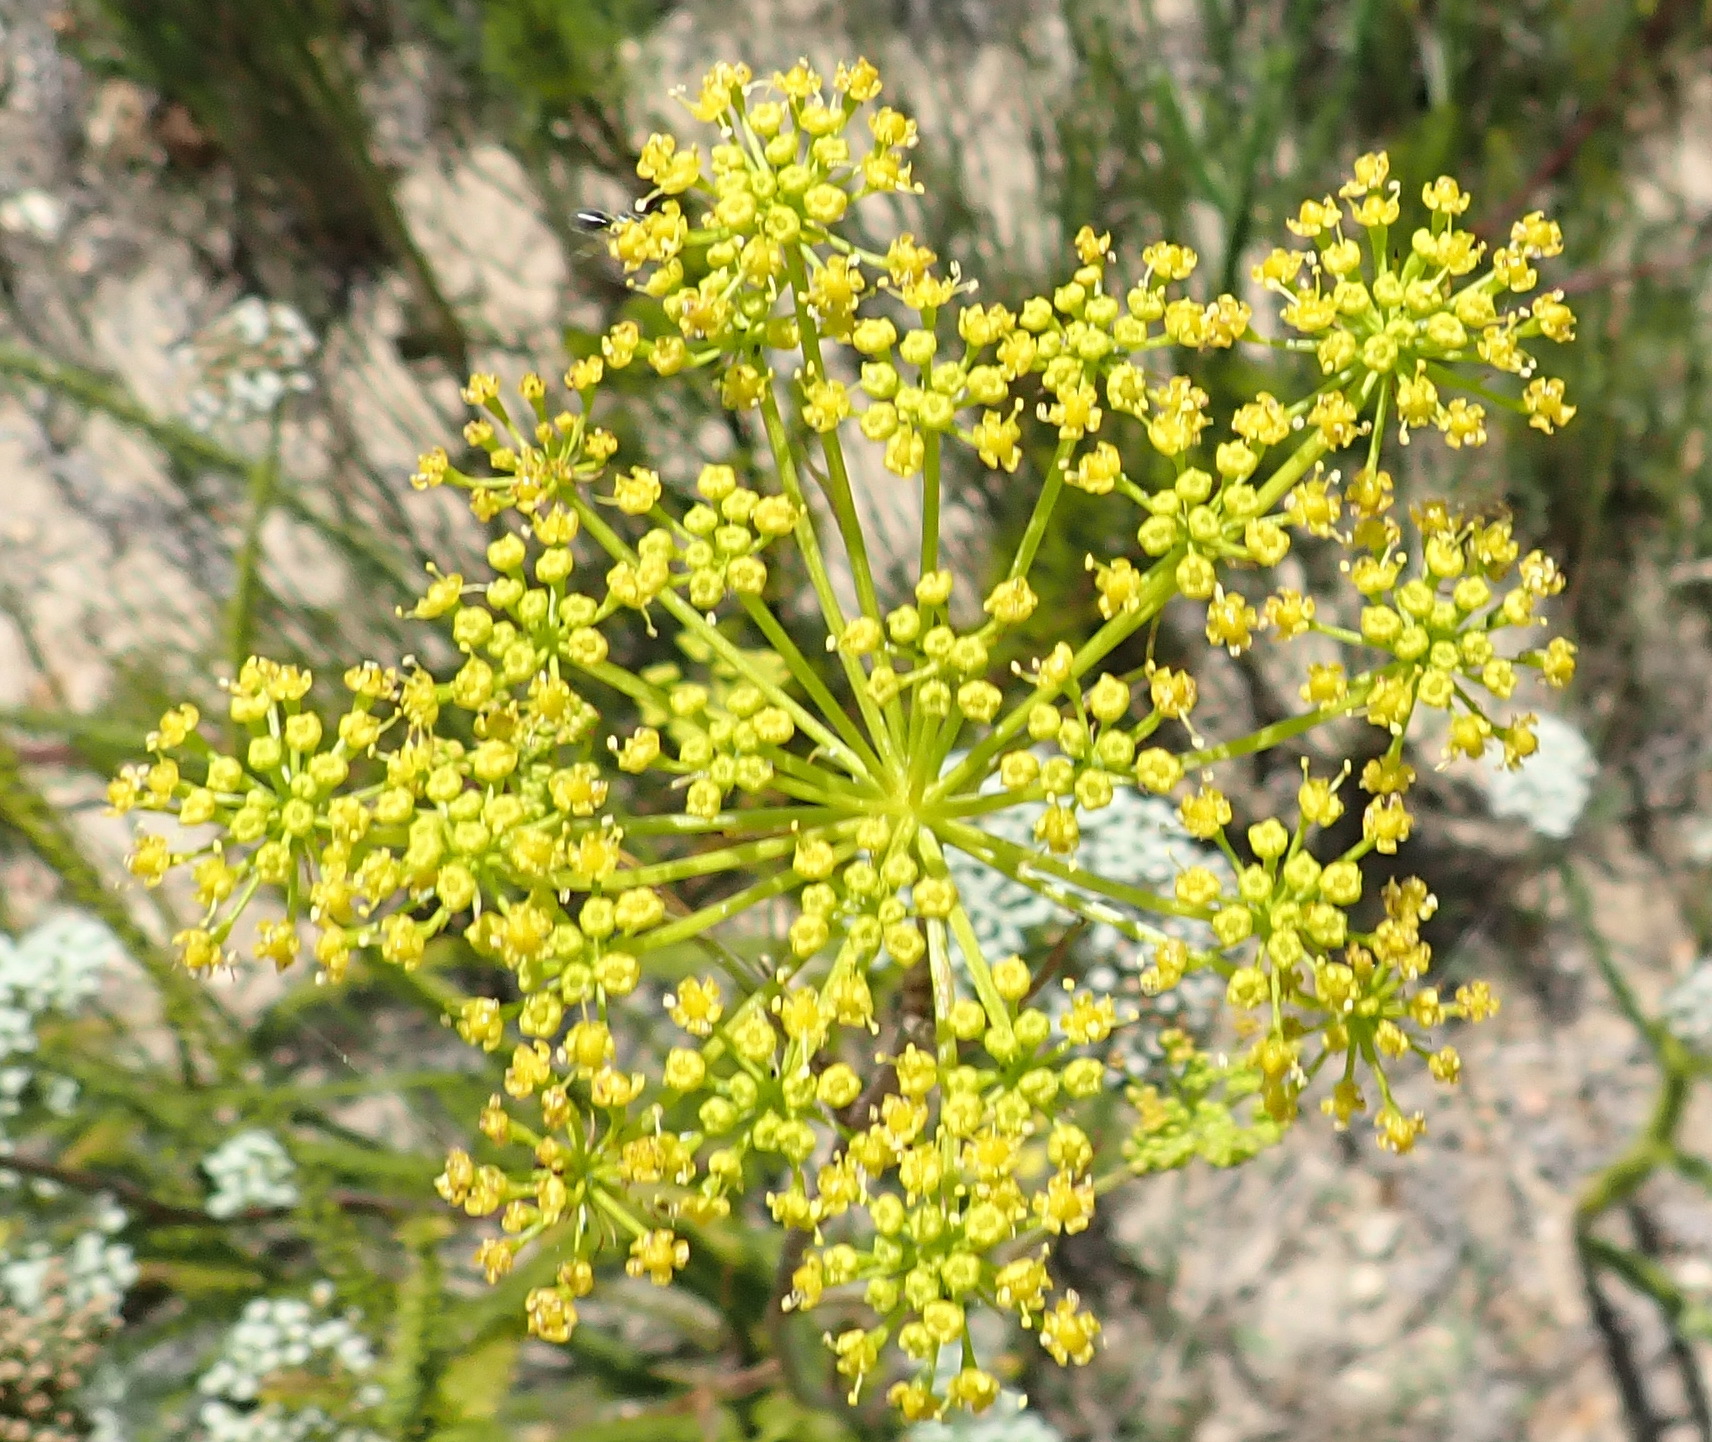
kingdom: Plantae
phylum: Tracheophyta
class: Magnoliopsida
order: Apiales
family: Apiaceae
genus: Notobubon
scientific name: Notobubon ferulaceum
